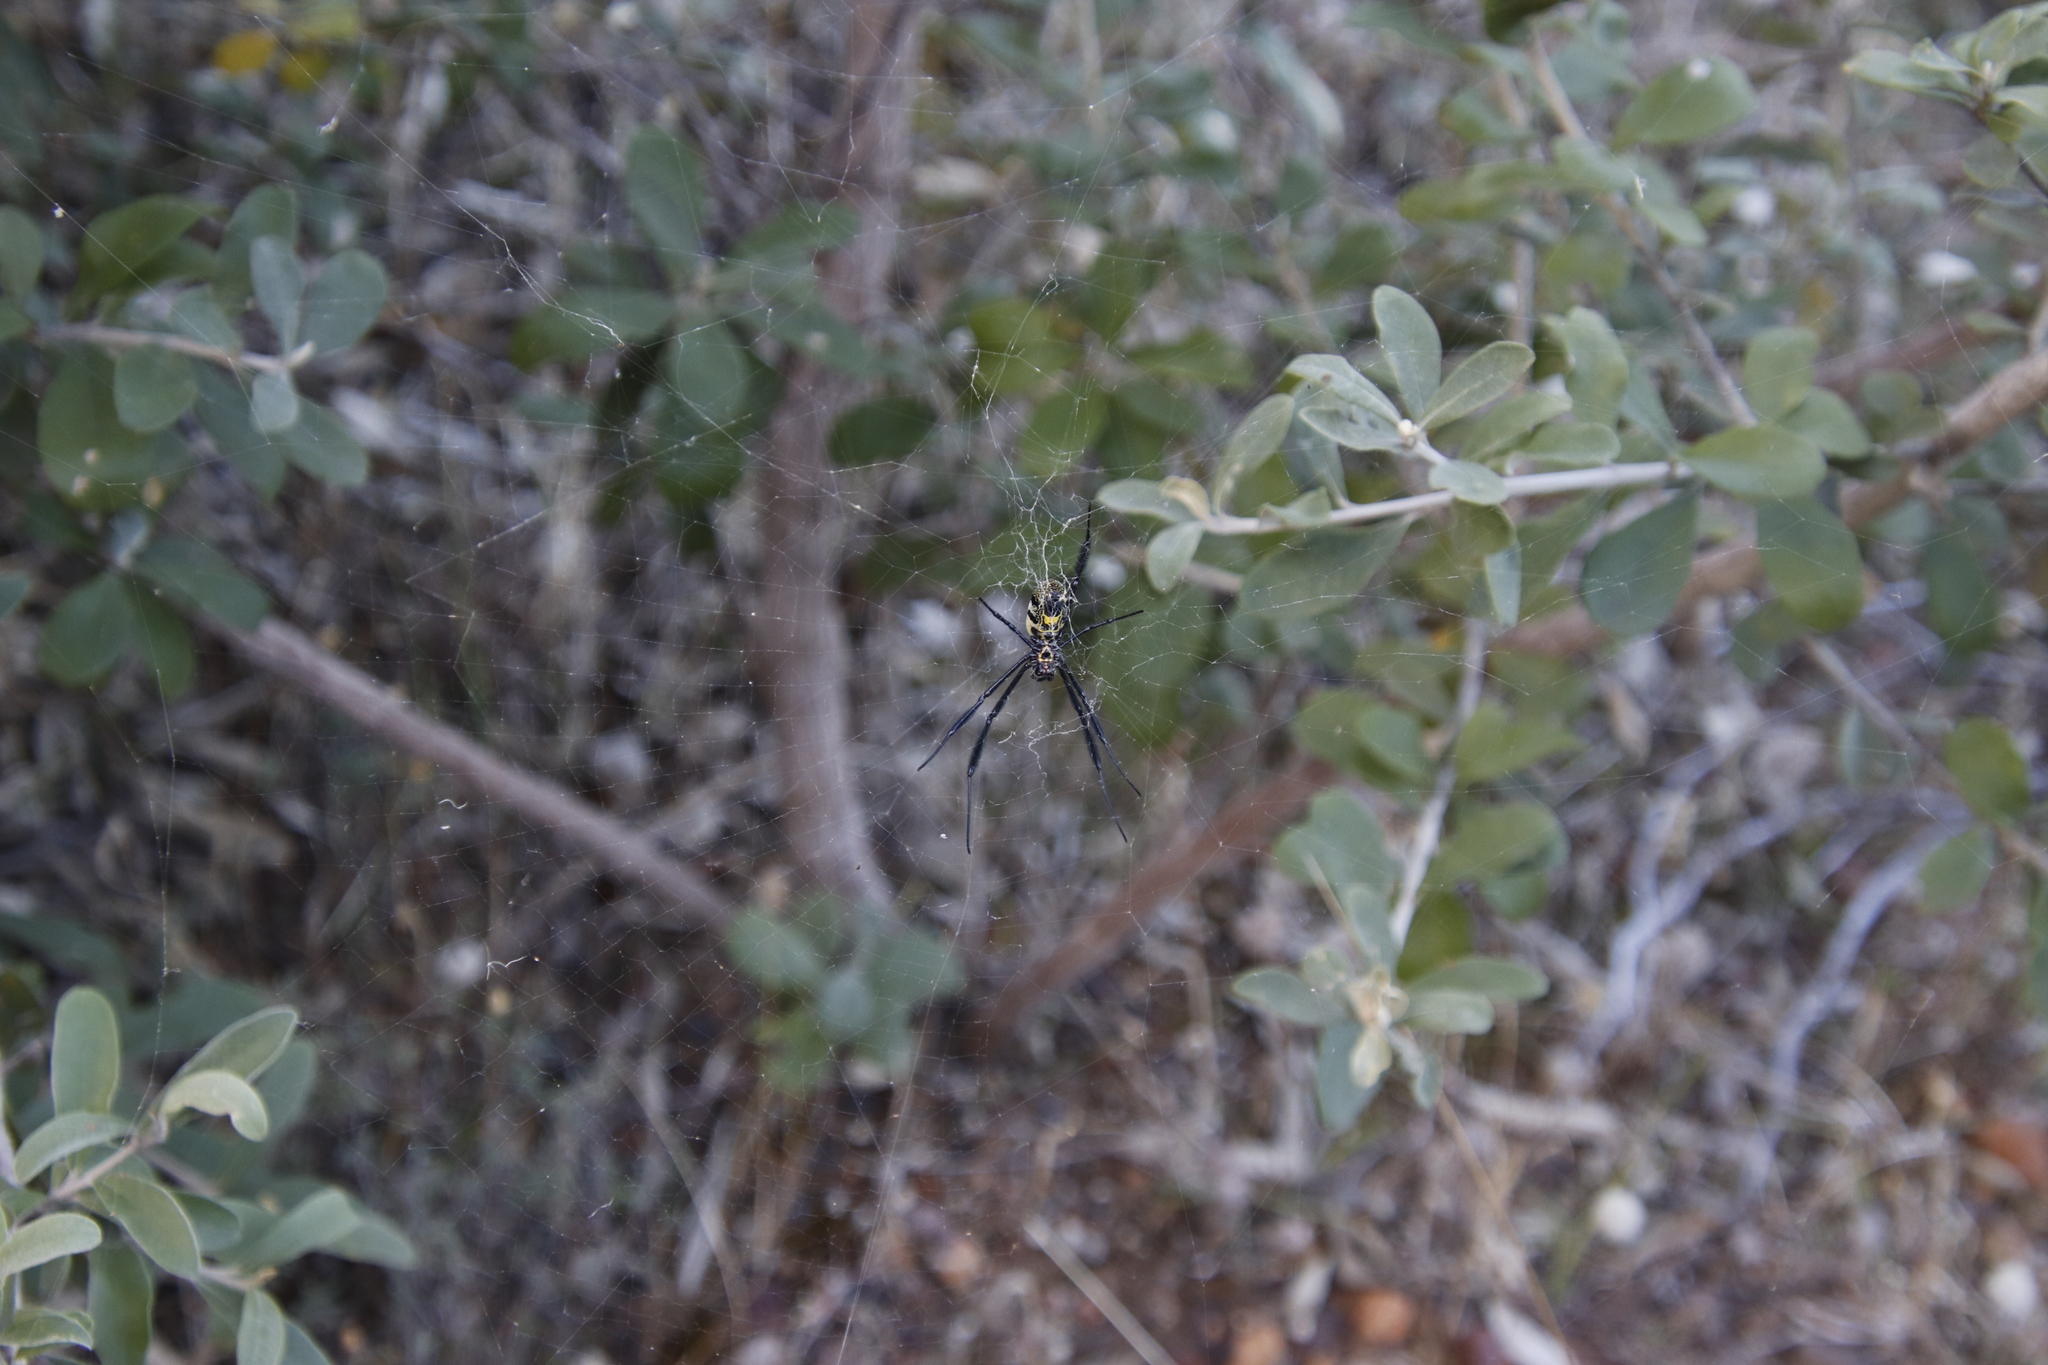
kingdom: Animalia
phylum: Arthropoda
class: Arachnida
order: Araneae
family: Araneidae
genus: Trichonephila
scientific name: Trichonephila fenestrata
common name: Hairy golden orb weaver
